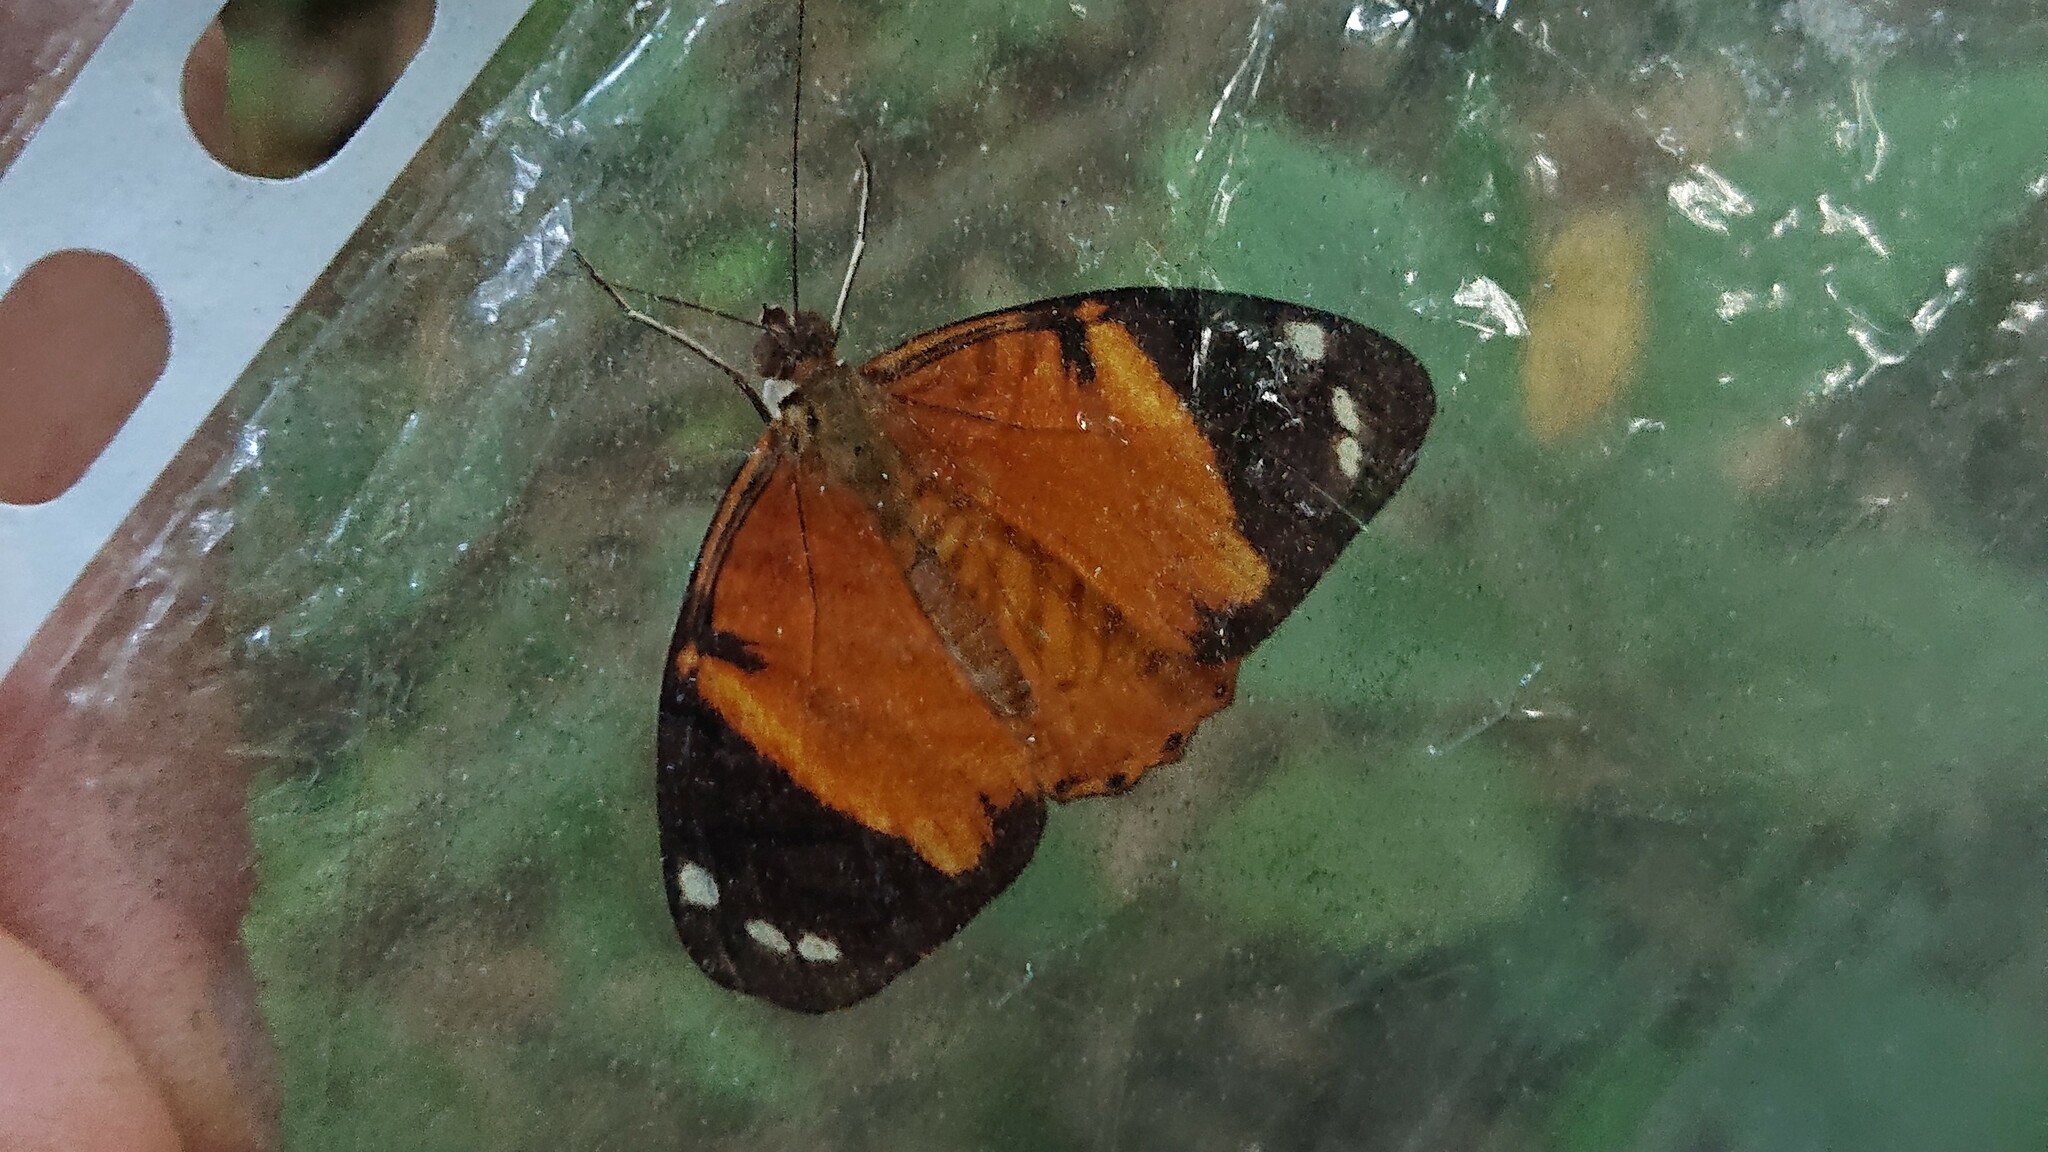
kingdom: Animalia
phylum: Arthropoda
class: Insecta
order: Lepidoptera
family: Nymphalidae
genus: Callizona
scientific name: Callizona acesta
